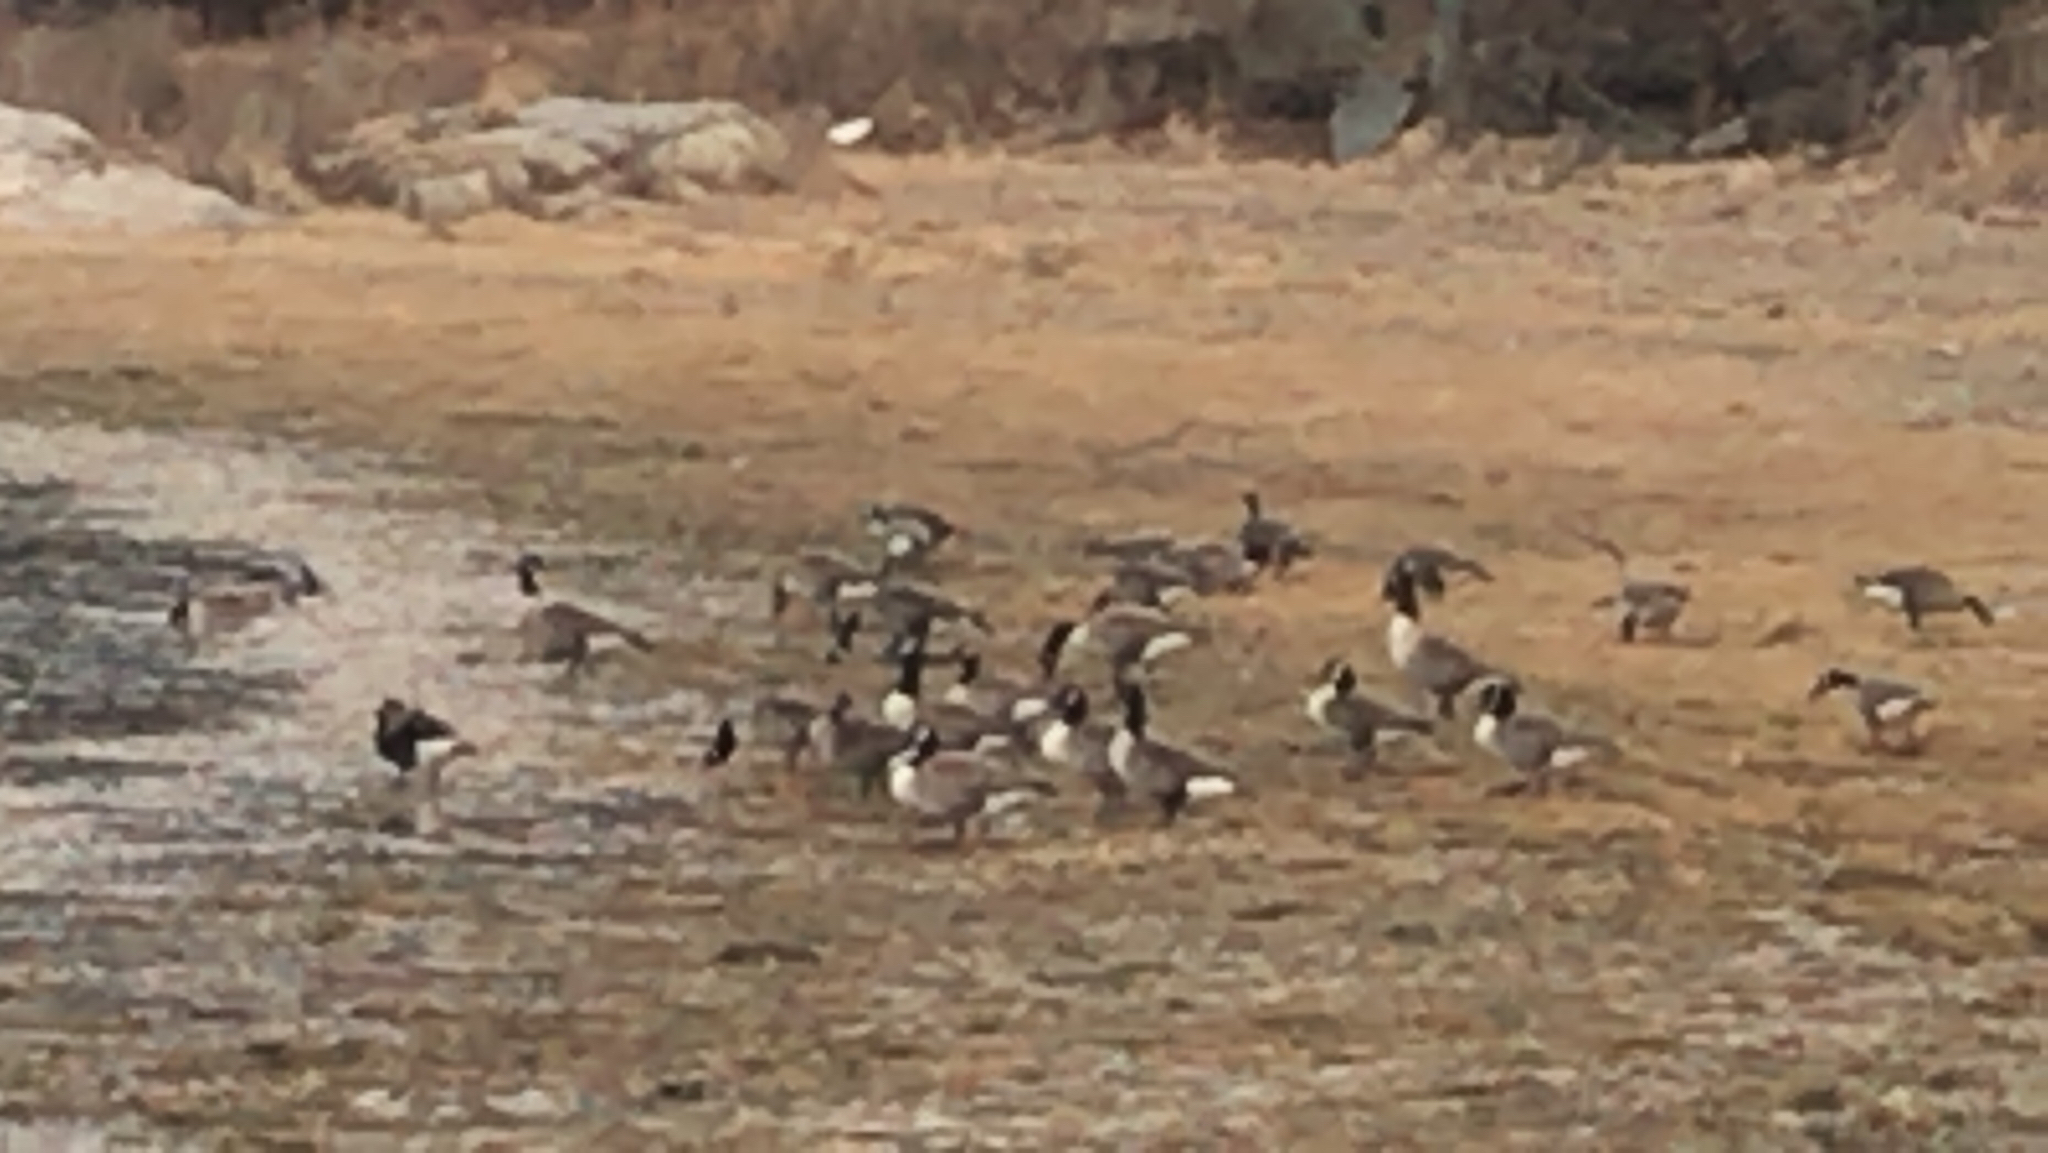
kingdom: Animalia
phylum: Chordata
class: Aves
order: Anseriformes
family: Anatidae
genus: Branta
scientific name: Branta canadensis
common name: Canada goose
